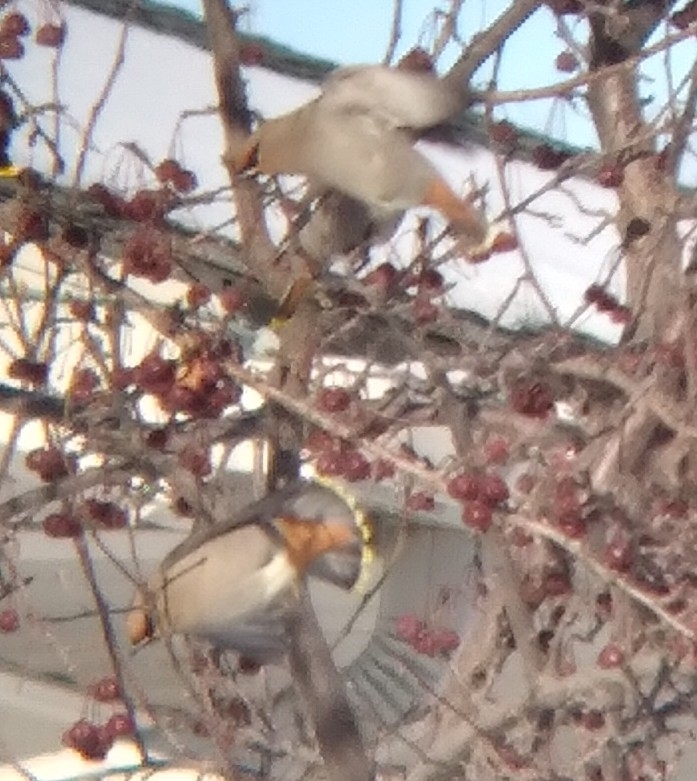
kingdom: Animalia
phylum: Chordata
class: Aves
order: Passeriformes
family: Bombycillidae
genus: Bombycilla
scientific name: Bombycilla garrulus
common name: Bohemian waxwing
